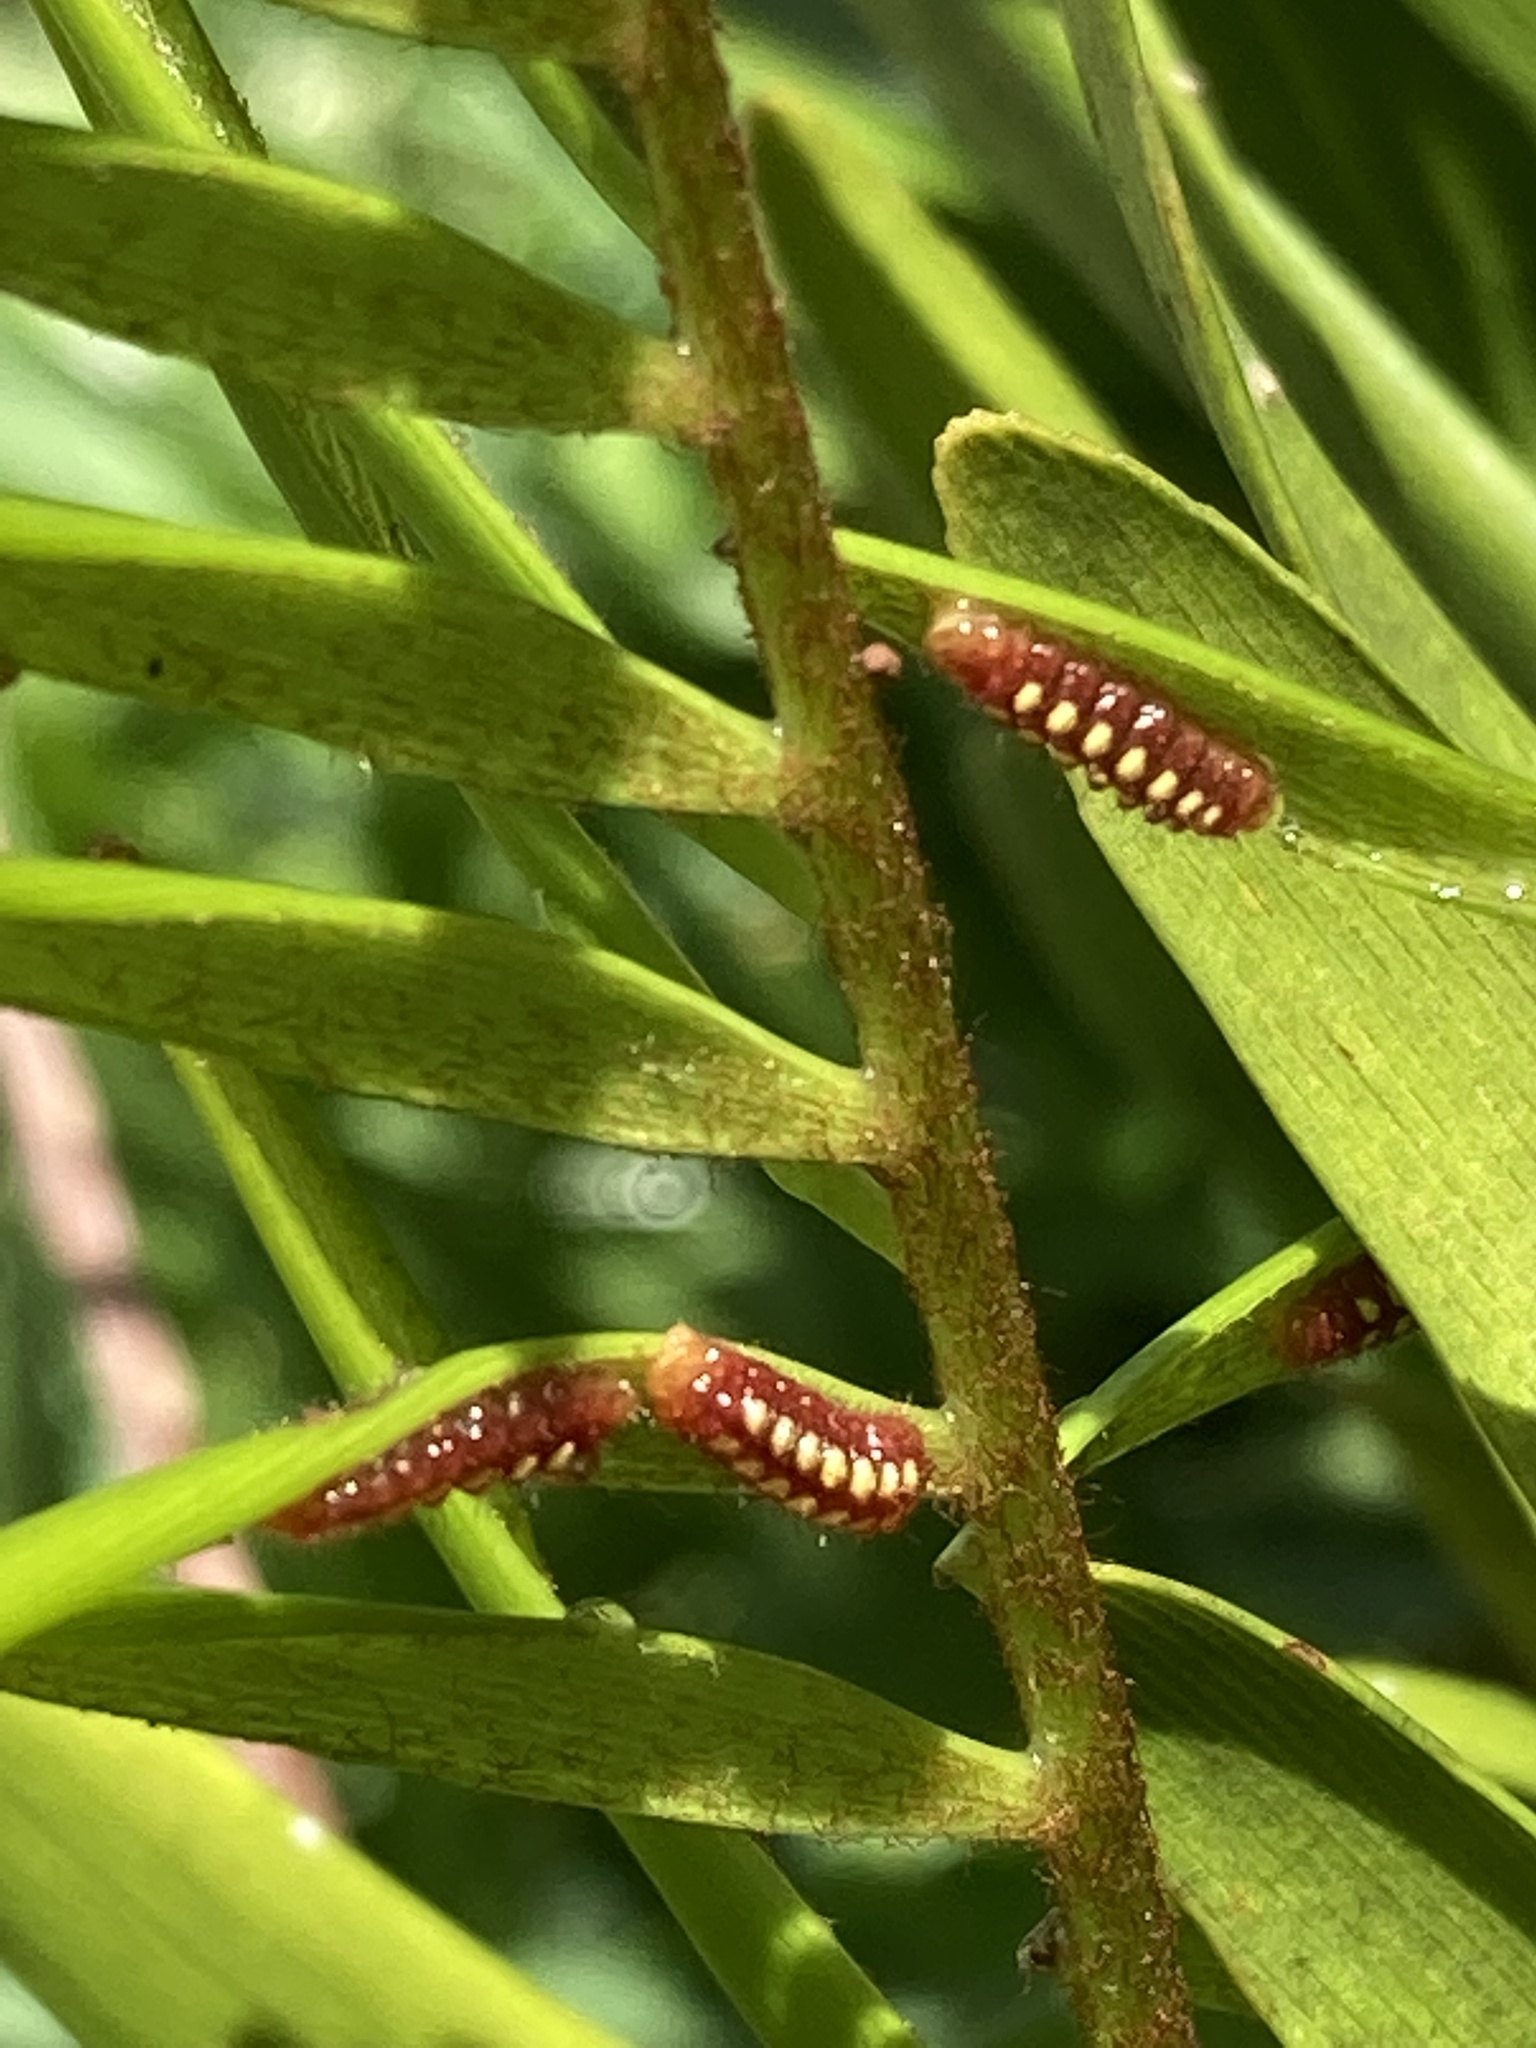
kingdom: Animalia
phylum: Arthropoda
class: Insecta
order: Lepidoptera
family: Lycaenidae
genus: Eumaeus
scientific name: Eumaeus atala
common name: Atala
